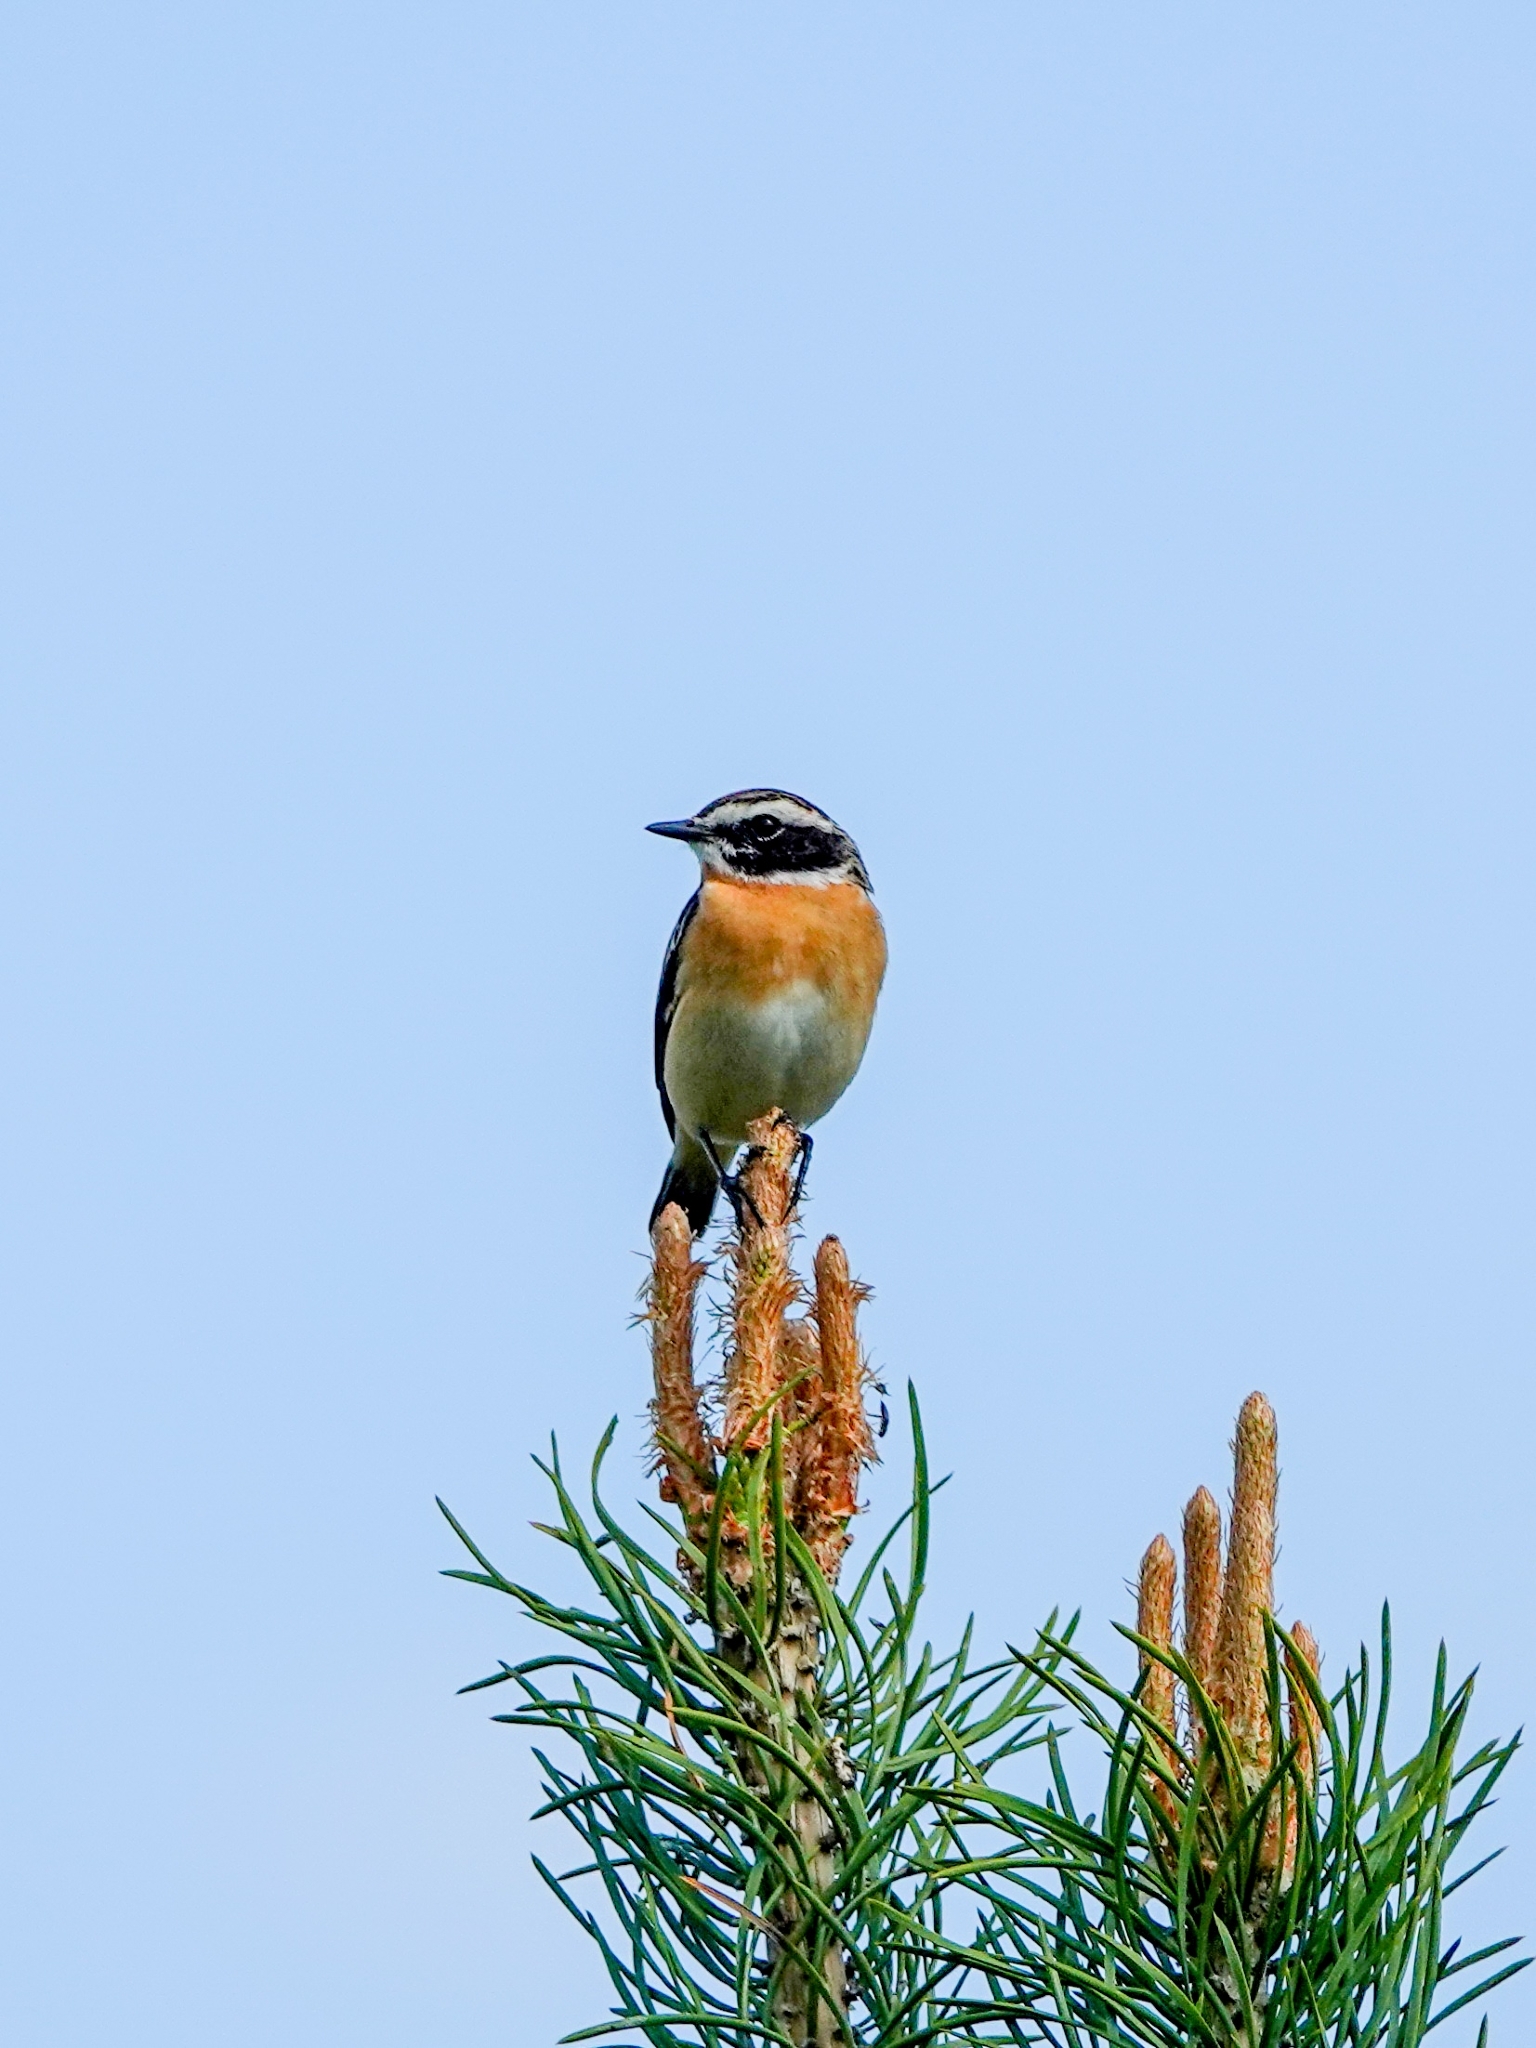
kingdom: Animalia
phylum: Chordata
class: Aves
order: Passeriformes
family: Muscicapidae
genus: Saxicola
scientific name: Saxicola rubetra
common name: Whinchat
